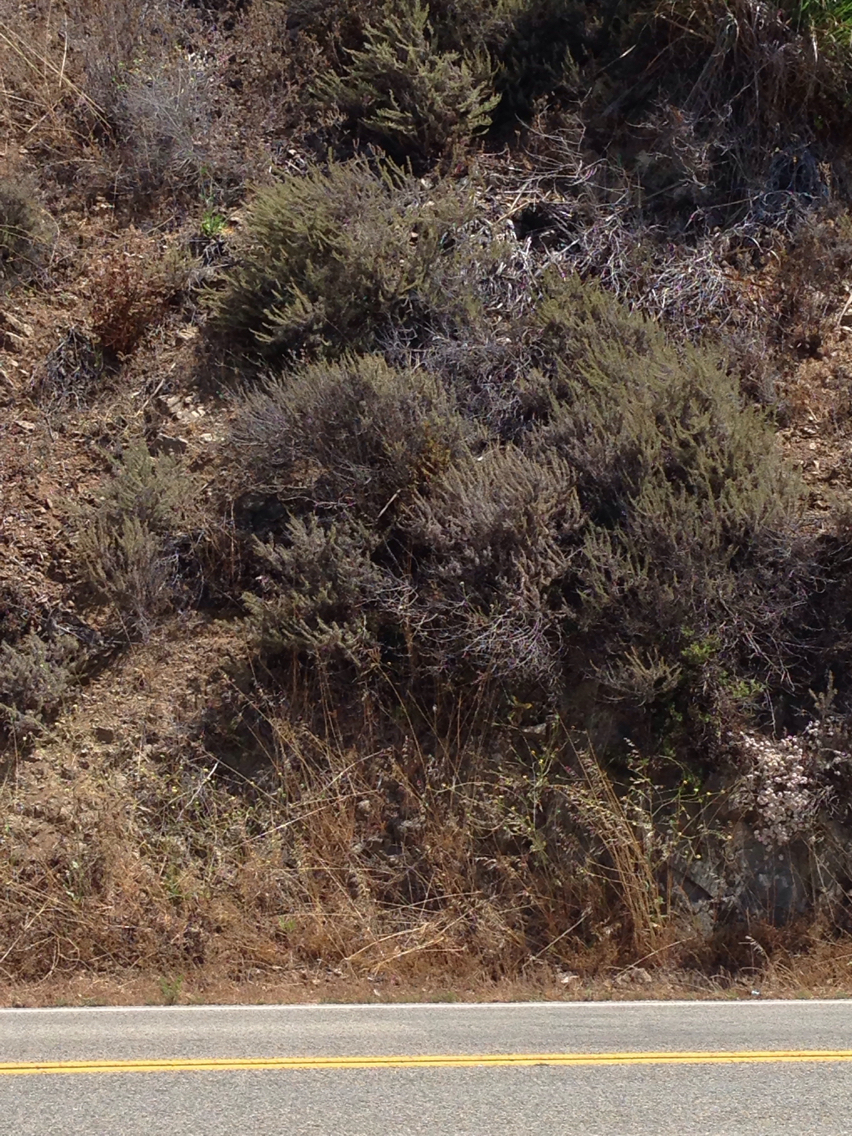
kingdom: Plantae
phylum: Tracheophyta
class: Magnoliopsida
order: Asterales
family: Asteraceae
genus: Artemisia
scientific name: Artemisia californica
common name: California sagebrush
